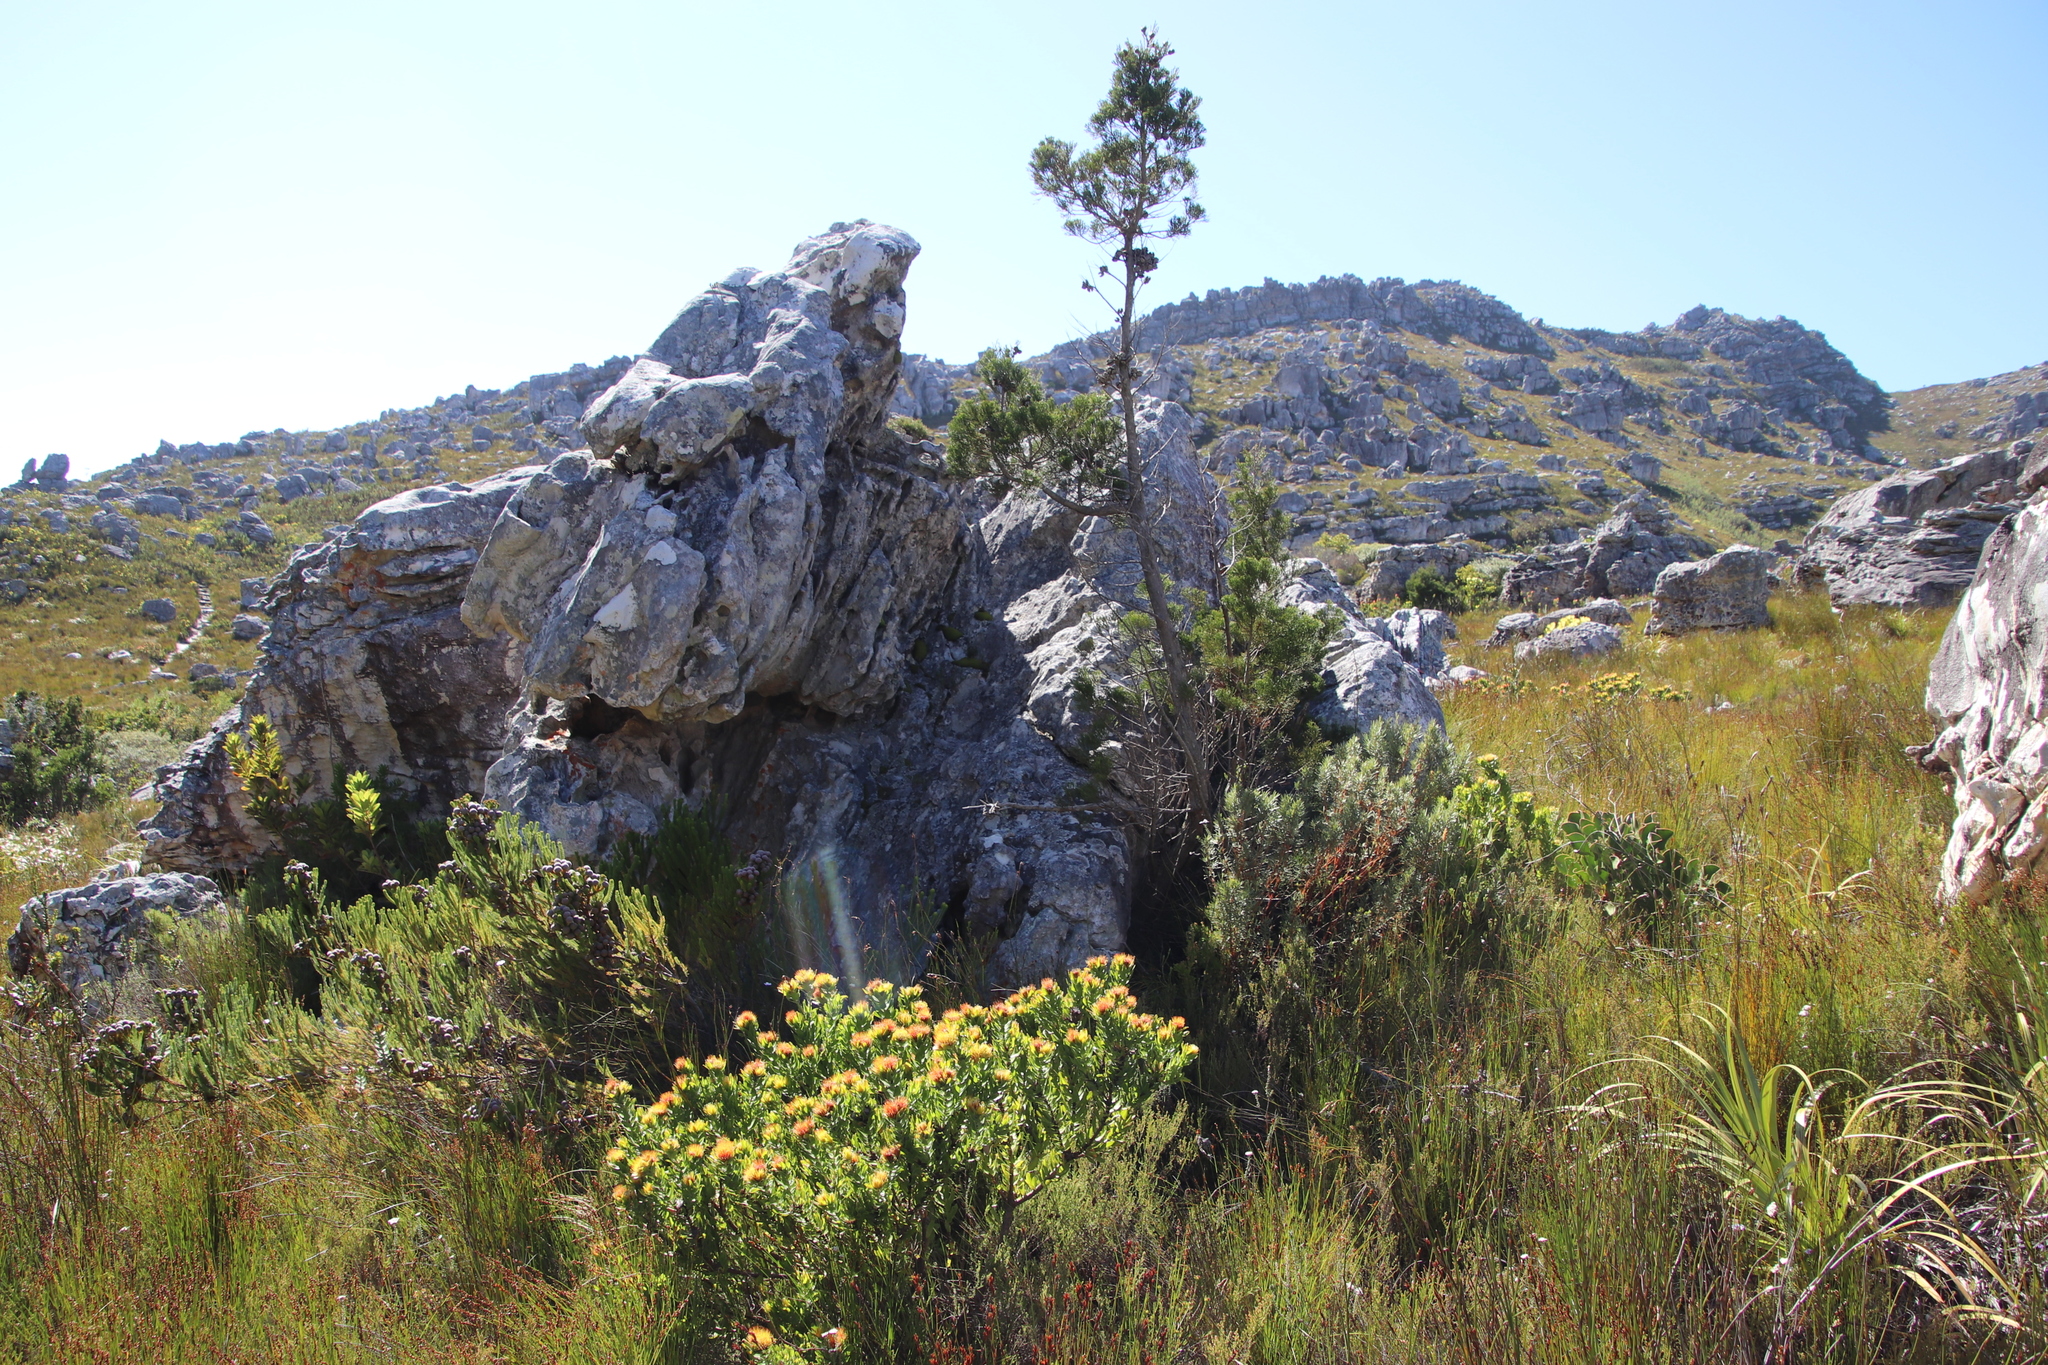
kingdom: Plantae
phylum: Tracheophyta
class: Pinopsida
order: Pinales
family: Cupressaceae
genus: Widdringtonia
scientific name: Widdringtonia nodiflora
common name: Cape cypress
